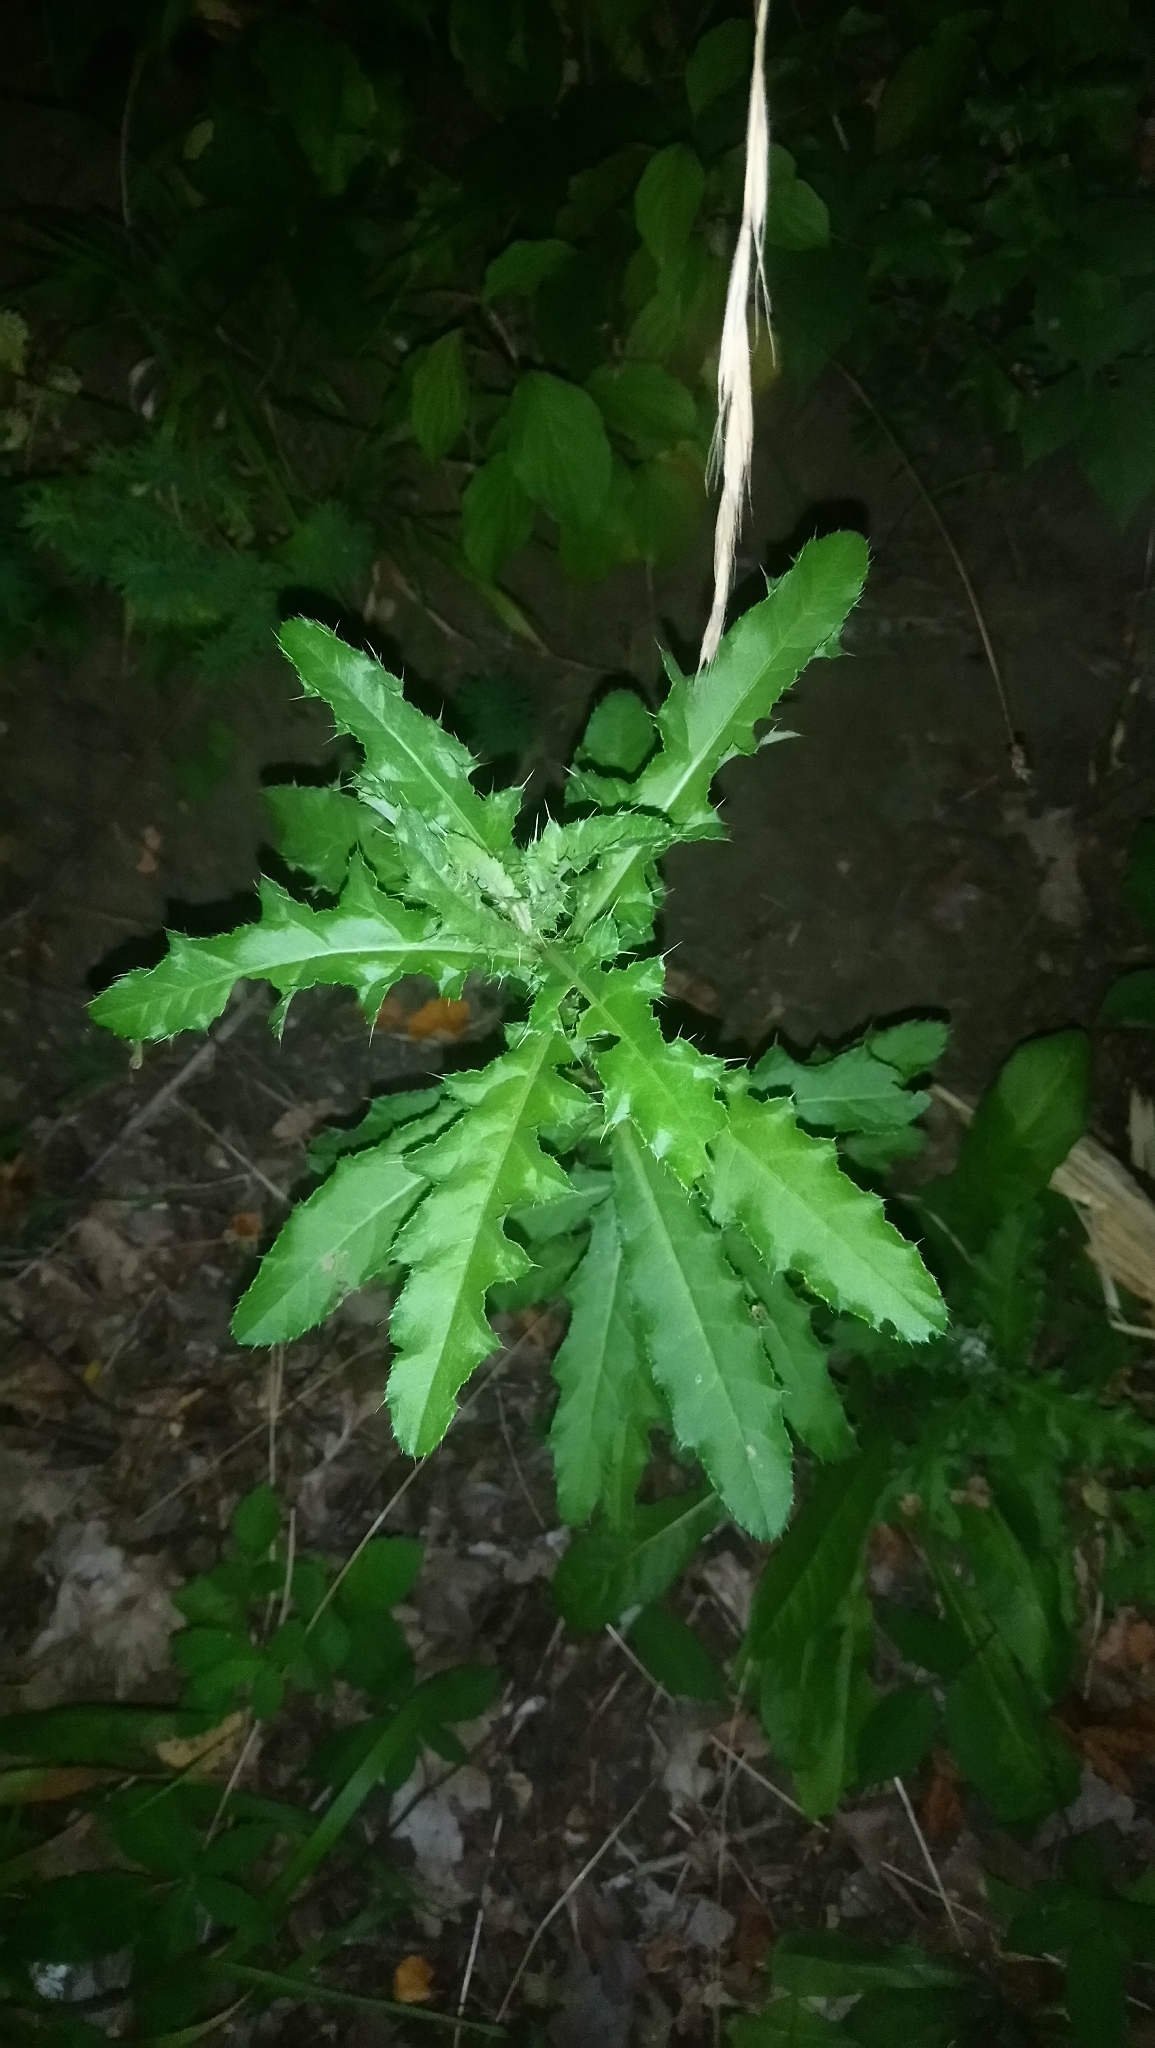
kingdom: Plantae
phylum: Tracheophyta
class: Magnoliopsida
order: Asterales
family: Asteraceae
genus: Cirsium
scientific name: Cirsium arvense
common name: Creeping thistle
